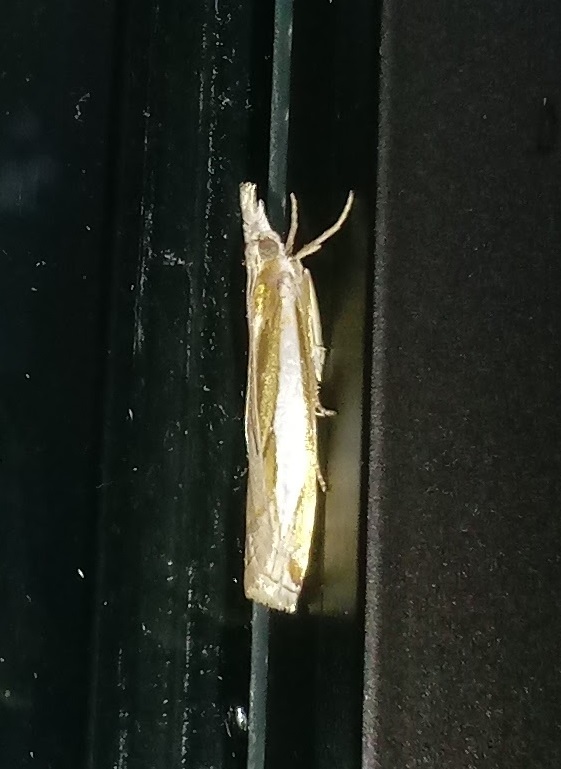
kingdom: Animalia
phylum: Arthropoda
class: Insecta
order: Lepidoptera
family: Crambidae
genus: Crambus
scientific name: Crambus leachellus
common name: Leach's grass-veneer
